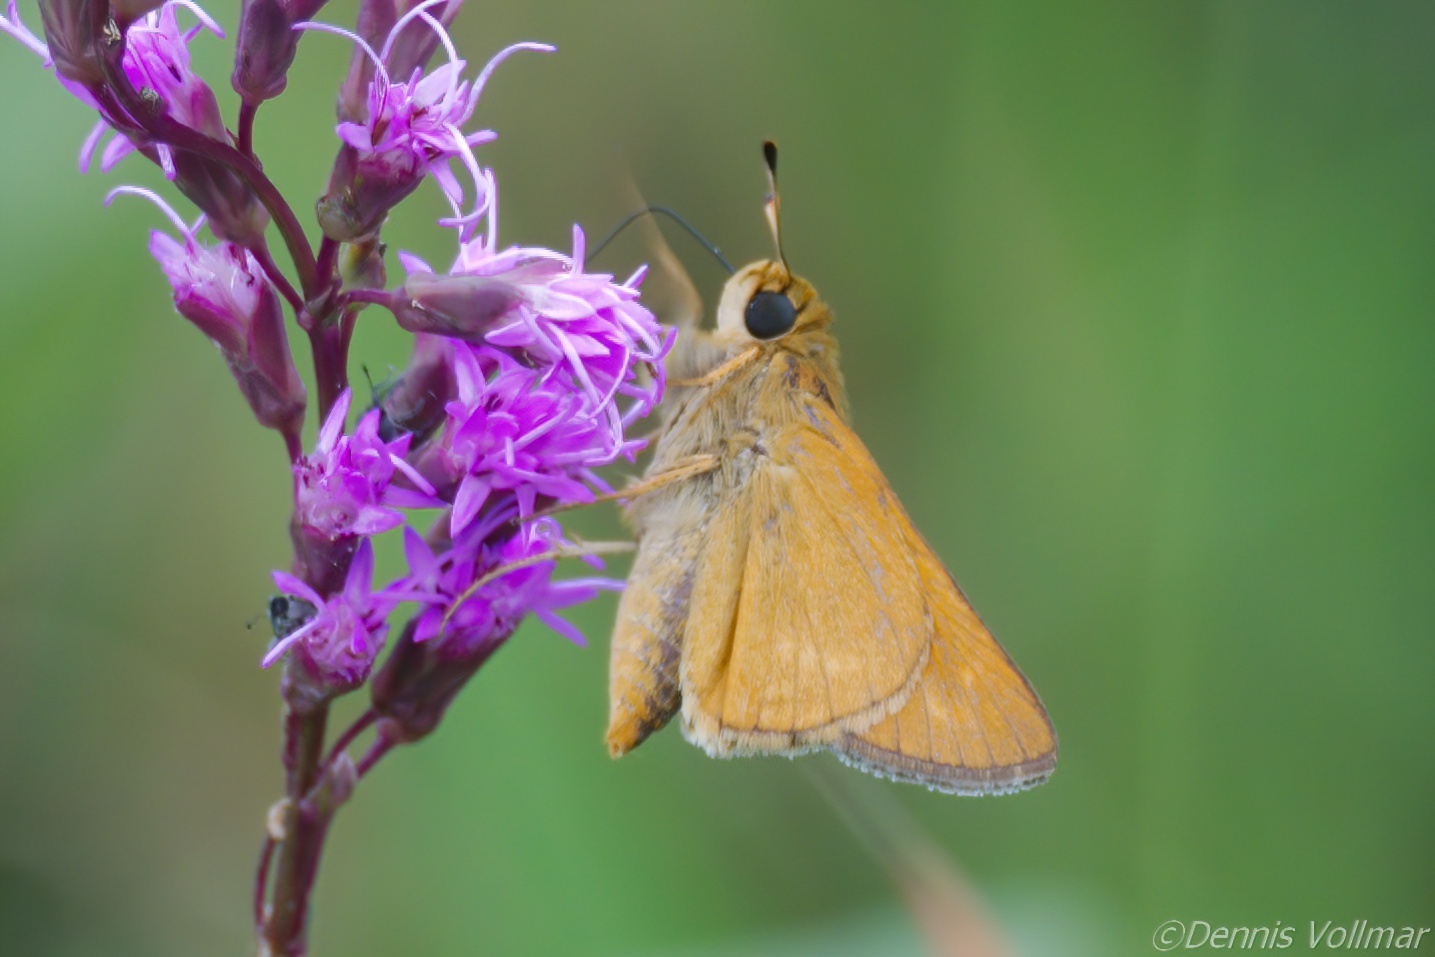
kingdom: Animalia
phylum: Arthropoda
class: Insecta
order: Lepidoptera
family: Hesperiidae
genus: Hesperia
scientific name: Hesperia meskei
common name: Meske's skipper
